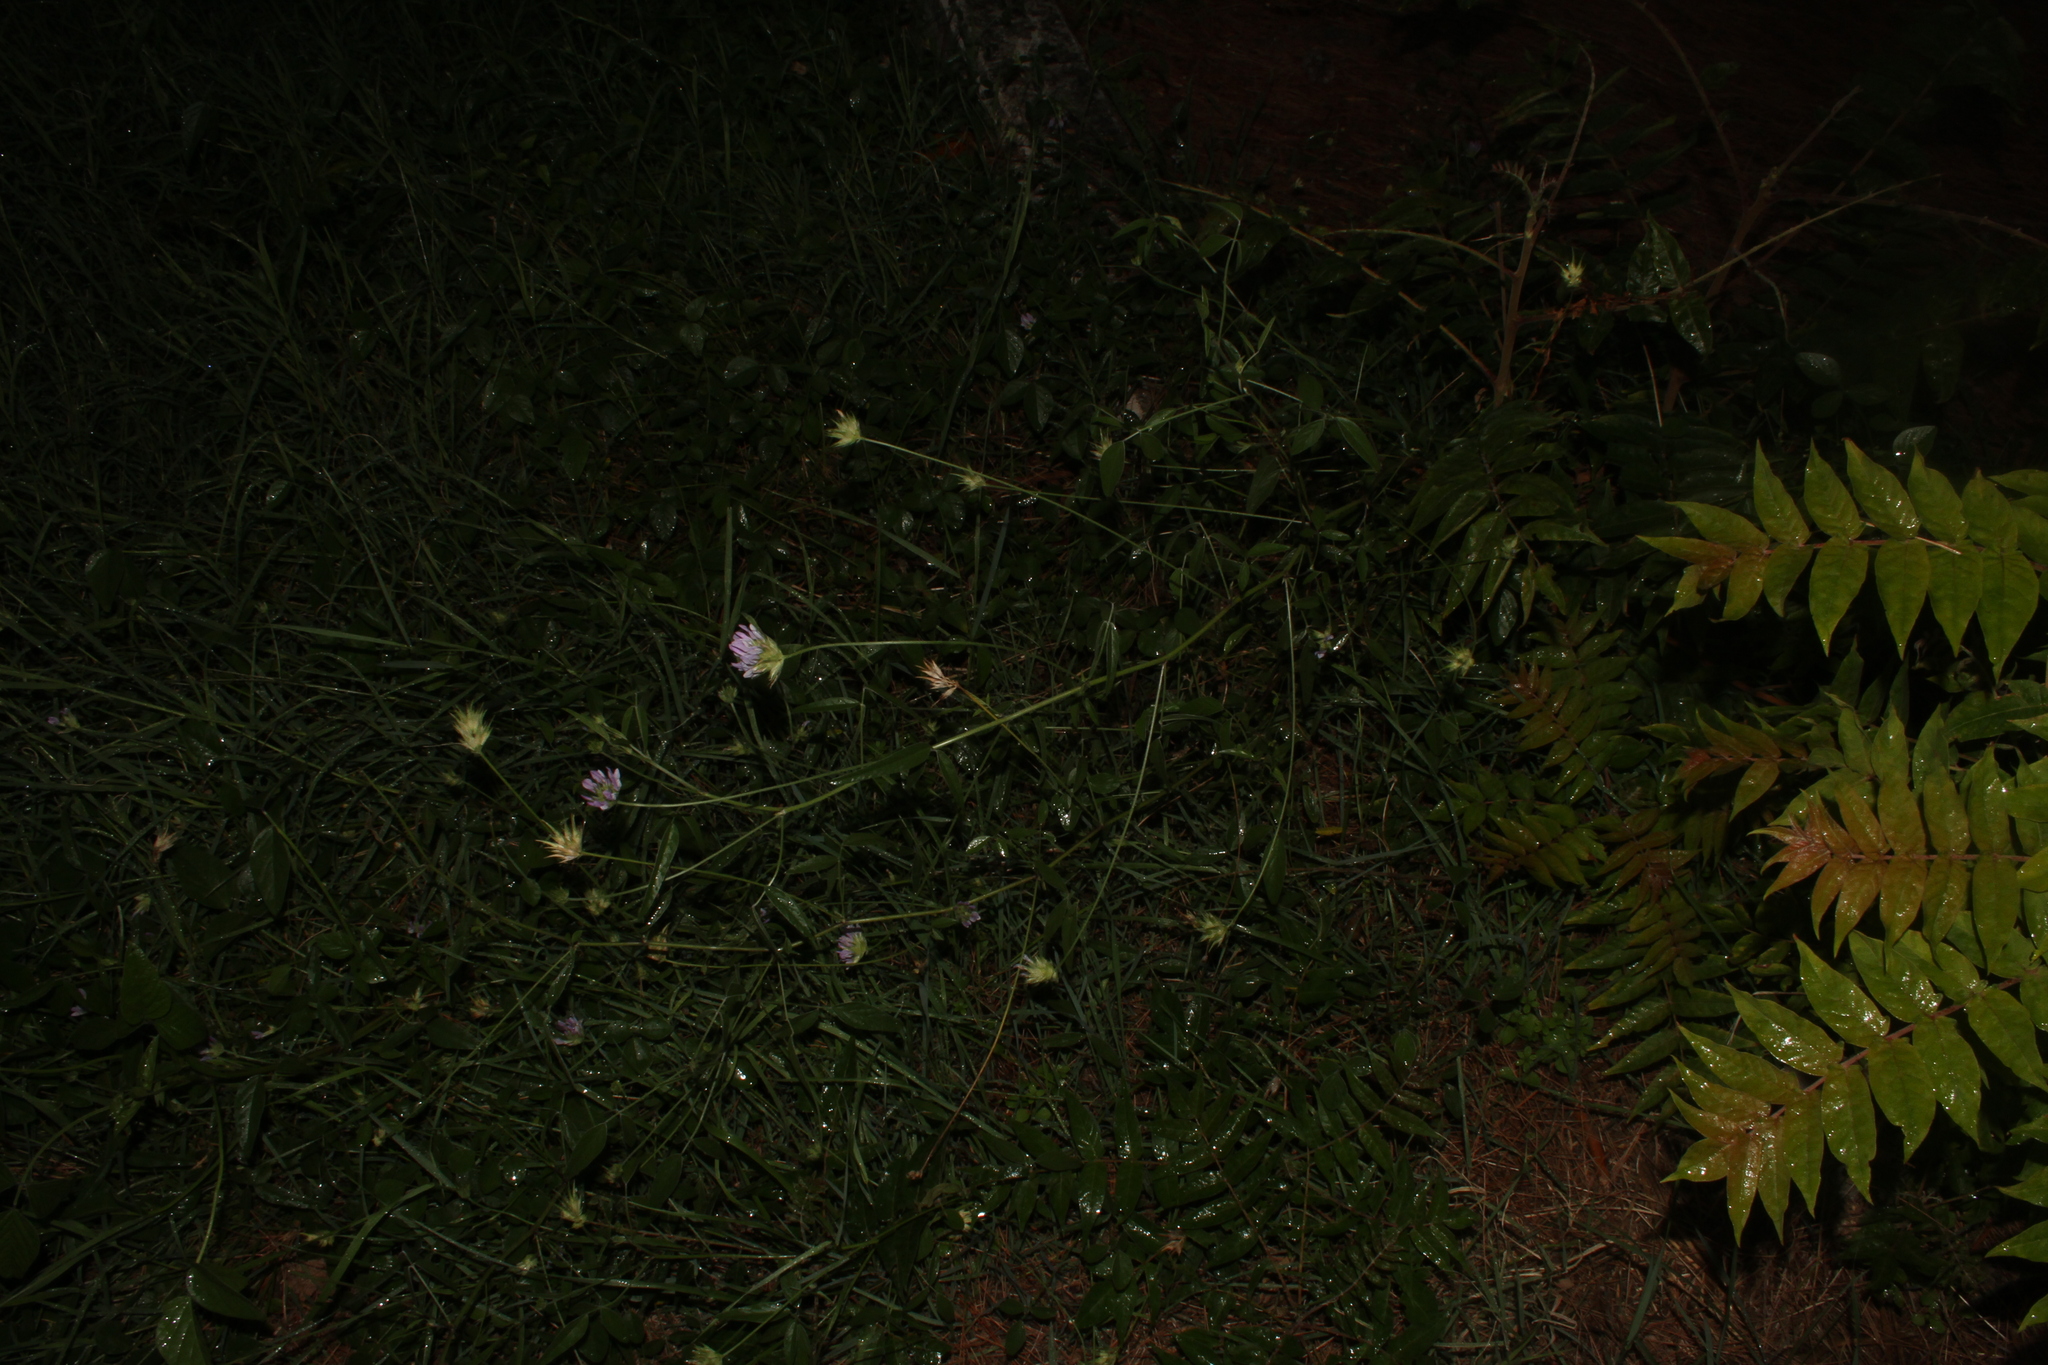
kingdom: Plantae
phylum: Tracheophyta
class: Magnoliopsida
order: Fabales
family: Fabaceae
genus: Bituminaria
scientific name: Bituminaria bituminosa
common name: Arabian pea
